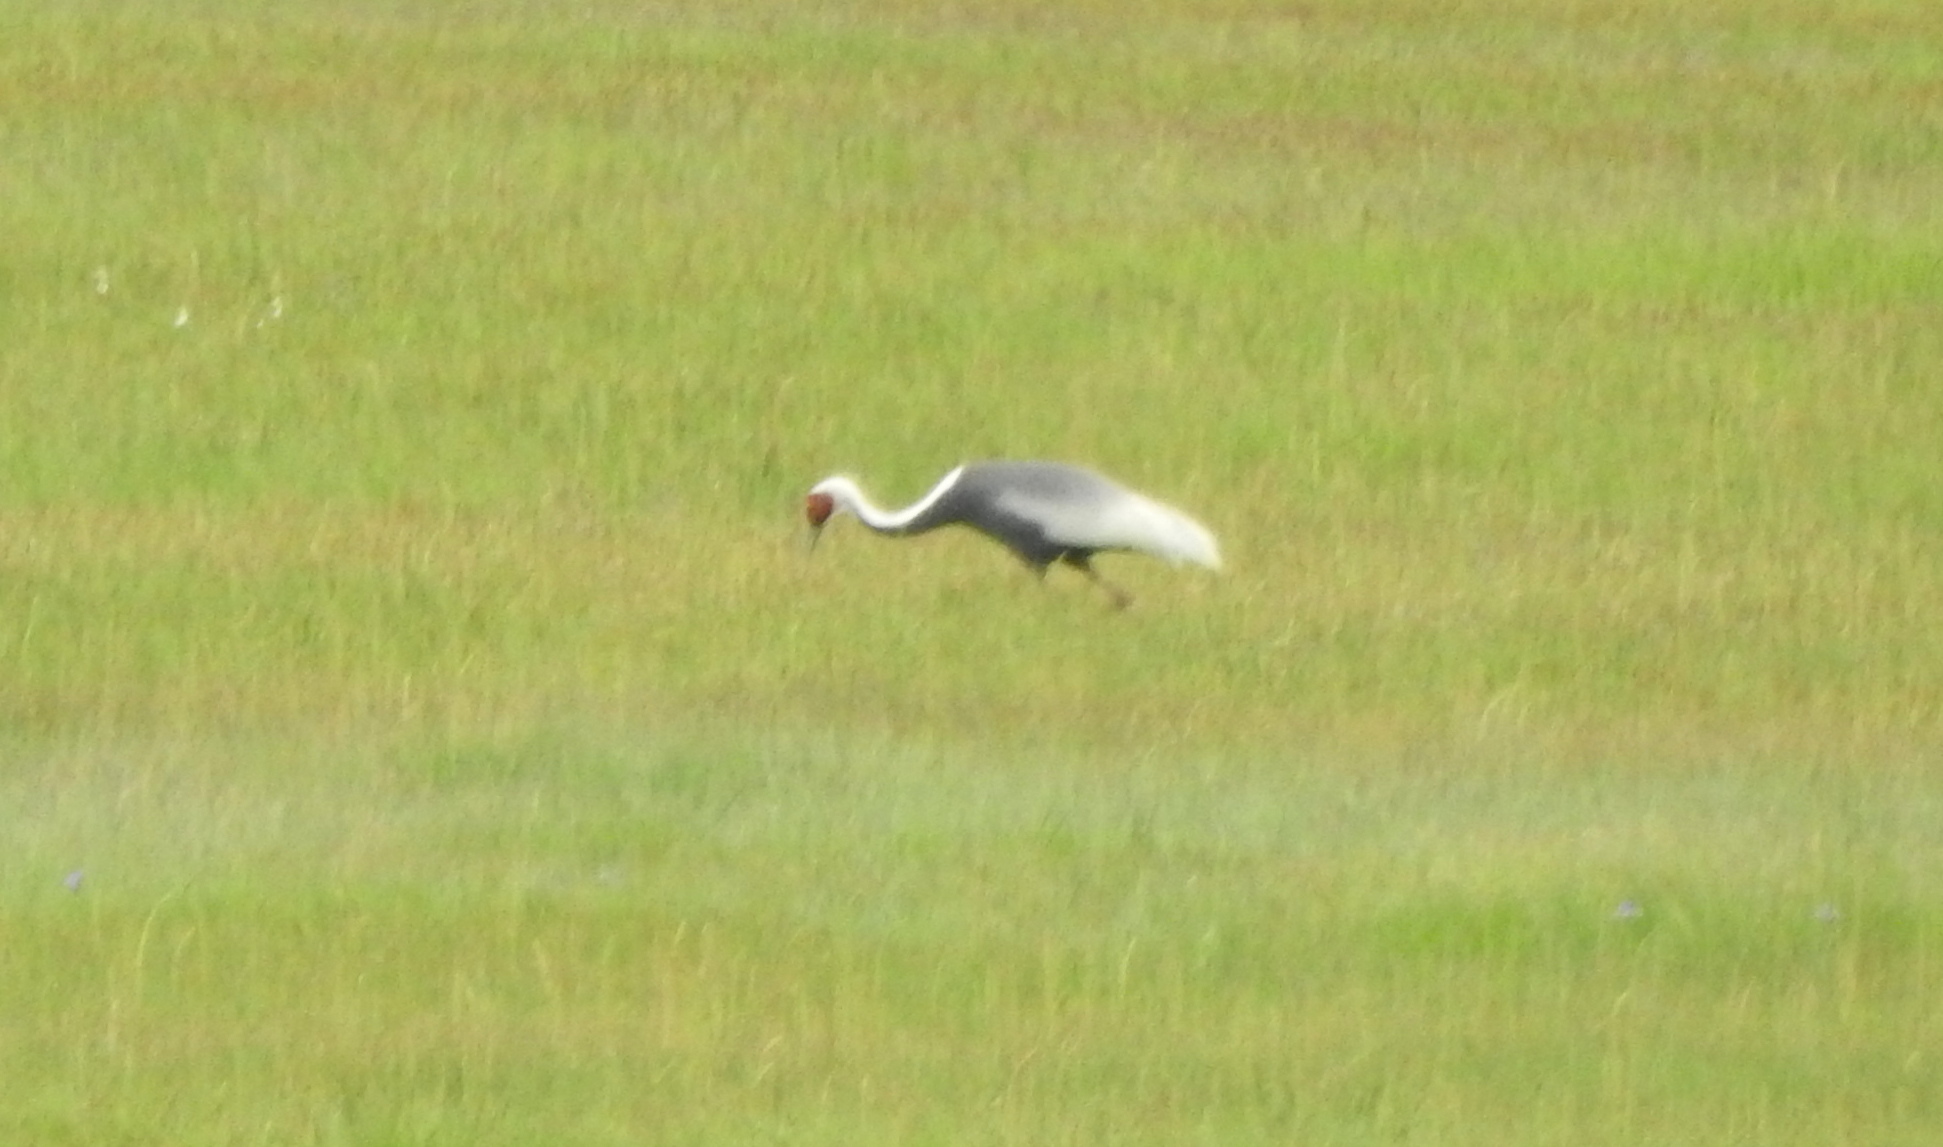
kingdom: Animalia
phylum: Chordata
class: Aves
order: Gruiformes
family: Gruidae
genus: Grus
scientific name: Grus vipio
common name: White-naped crane
